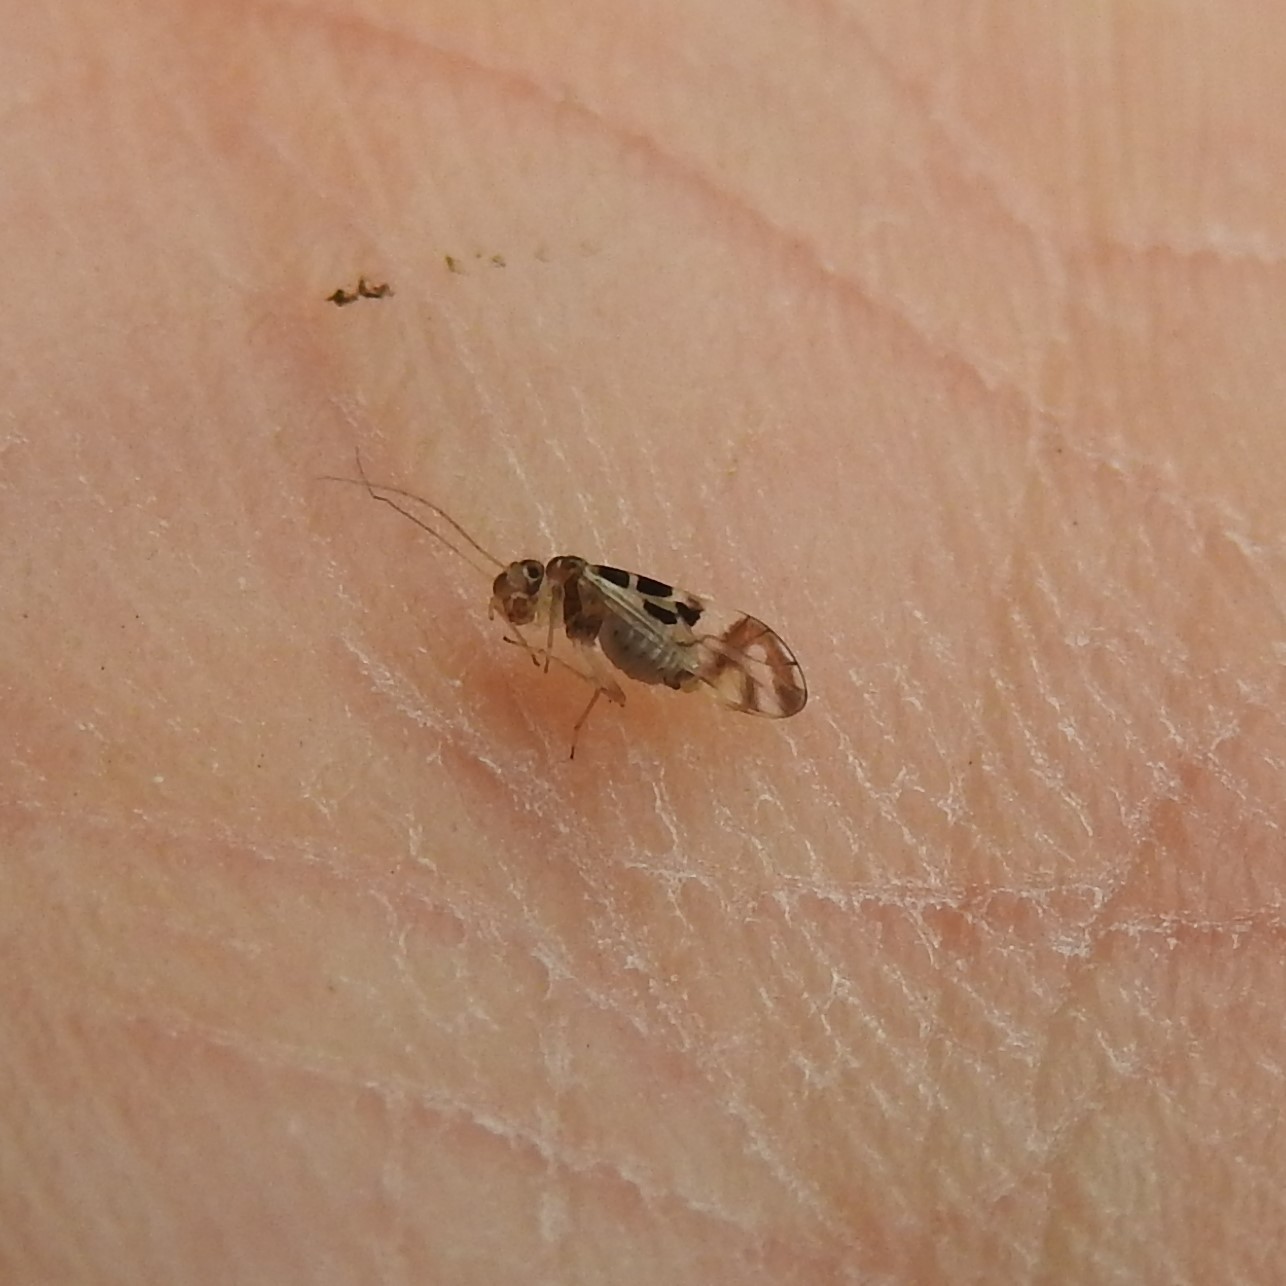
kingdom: Animalia
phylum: Arthropoda
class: Insecta
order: Psocodea
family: Stenopsocidae
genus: Graphopsocus
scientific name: Graphopsocus cruciatus
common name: Lizard bark louse
